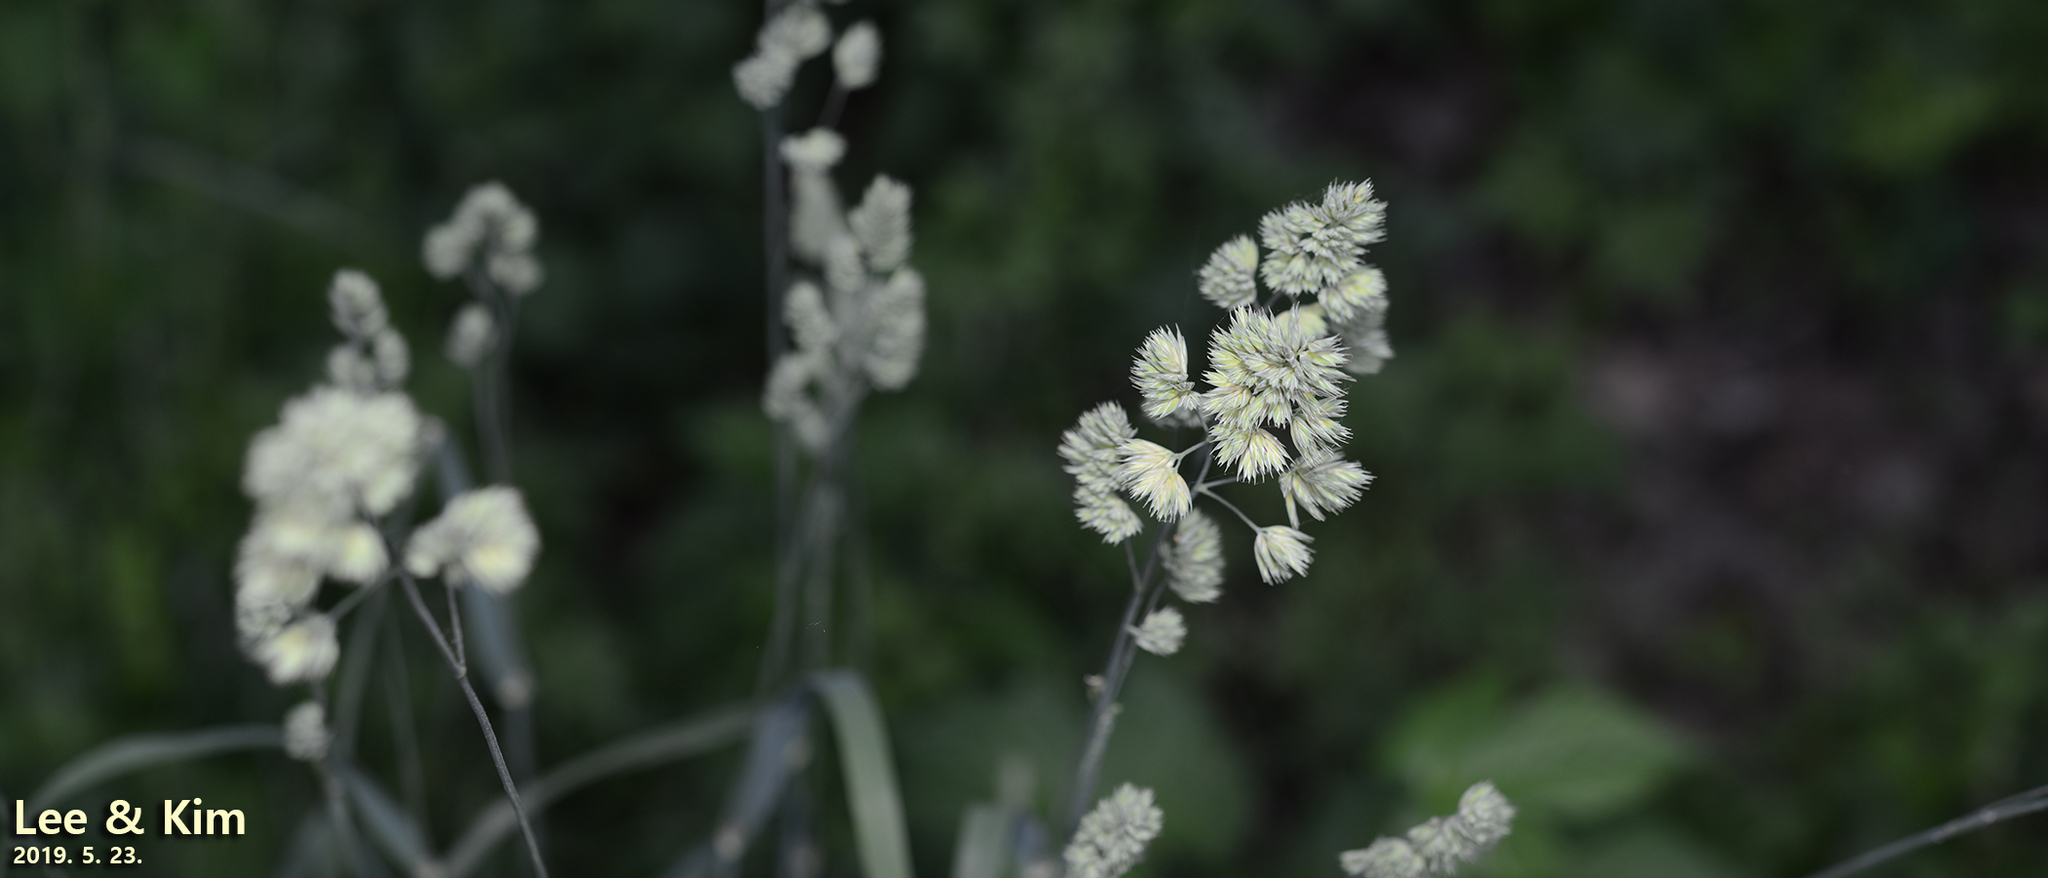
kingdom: Plantae
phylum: Tracheophyta
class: Liliopsida
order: Poales
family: Poaceae
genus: Dactylis
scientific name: Dactylis glomerata
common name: Orchardgrass
